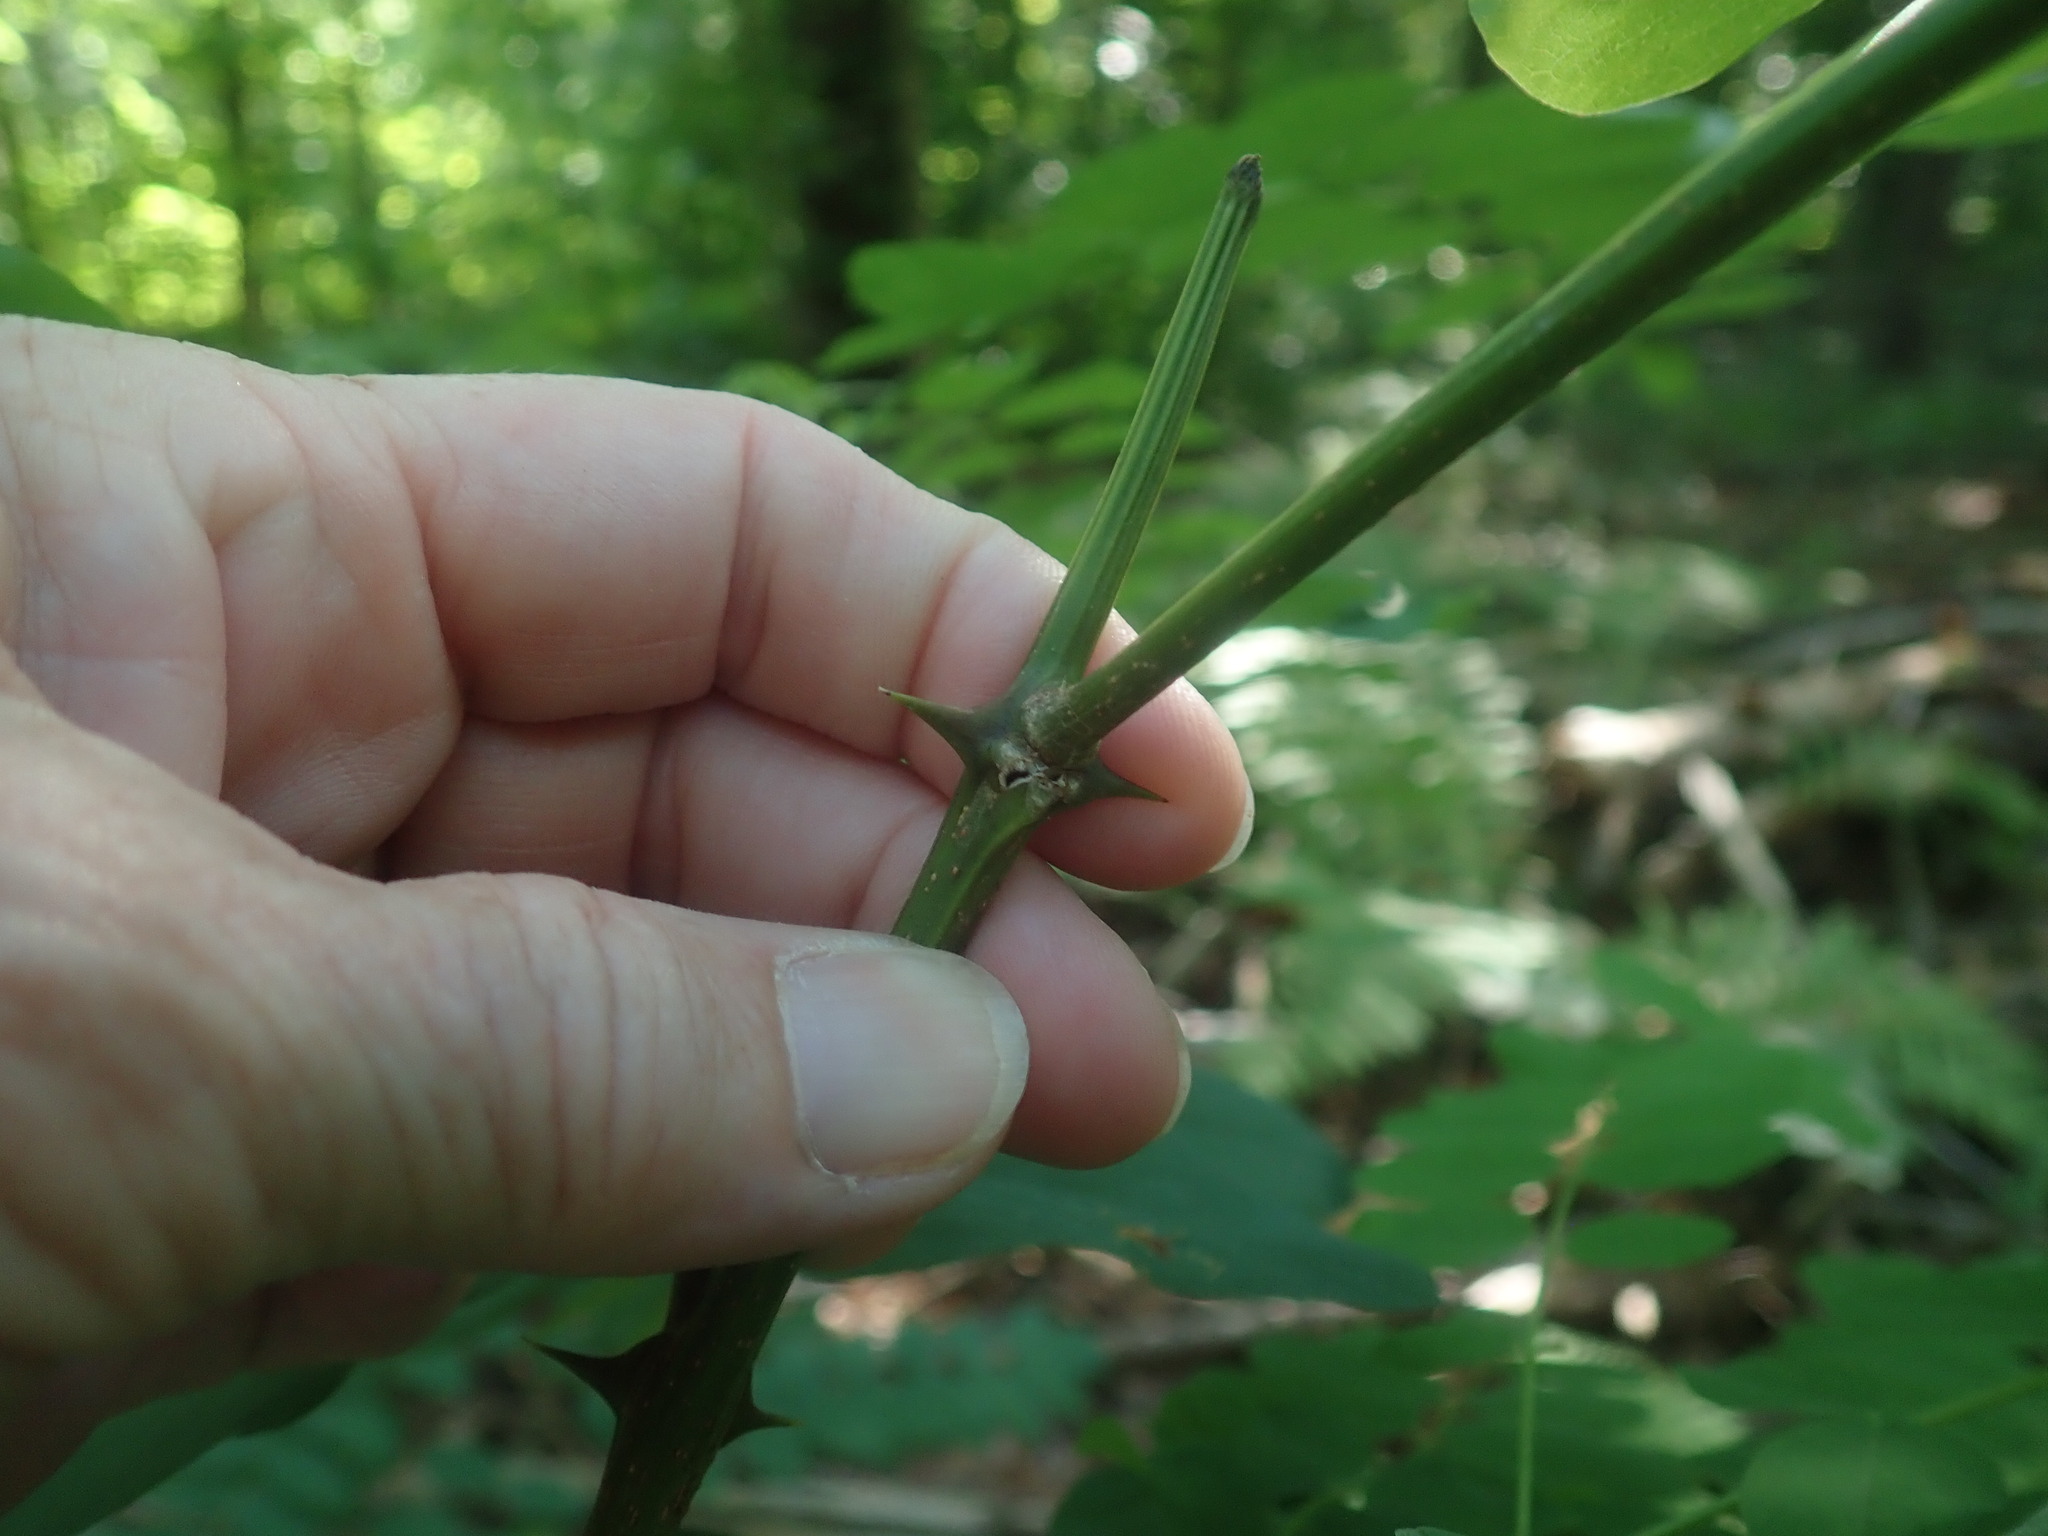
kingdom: Plantae
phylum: Tracheophyta
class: Magnoliopsida
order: Fabales
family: Fabaceae
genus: Robinia
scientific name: Robinia pseudoacacia
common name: Black locust
